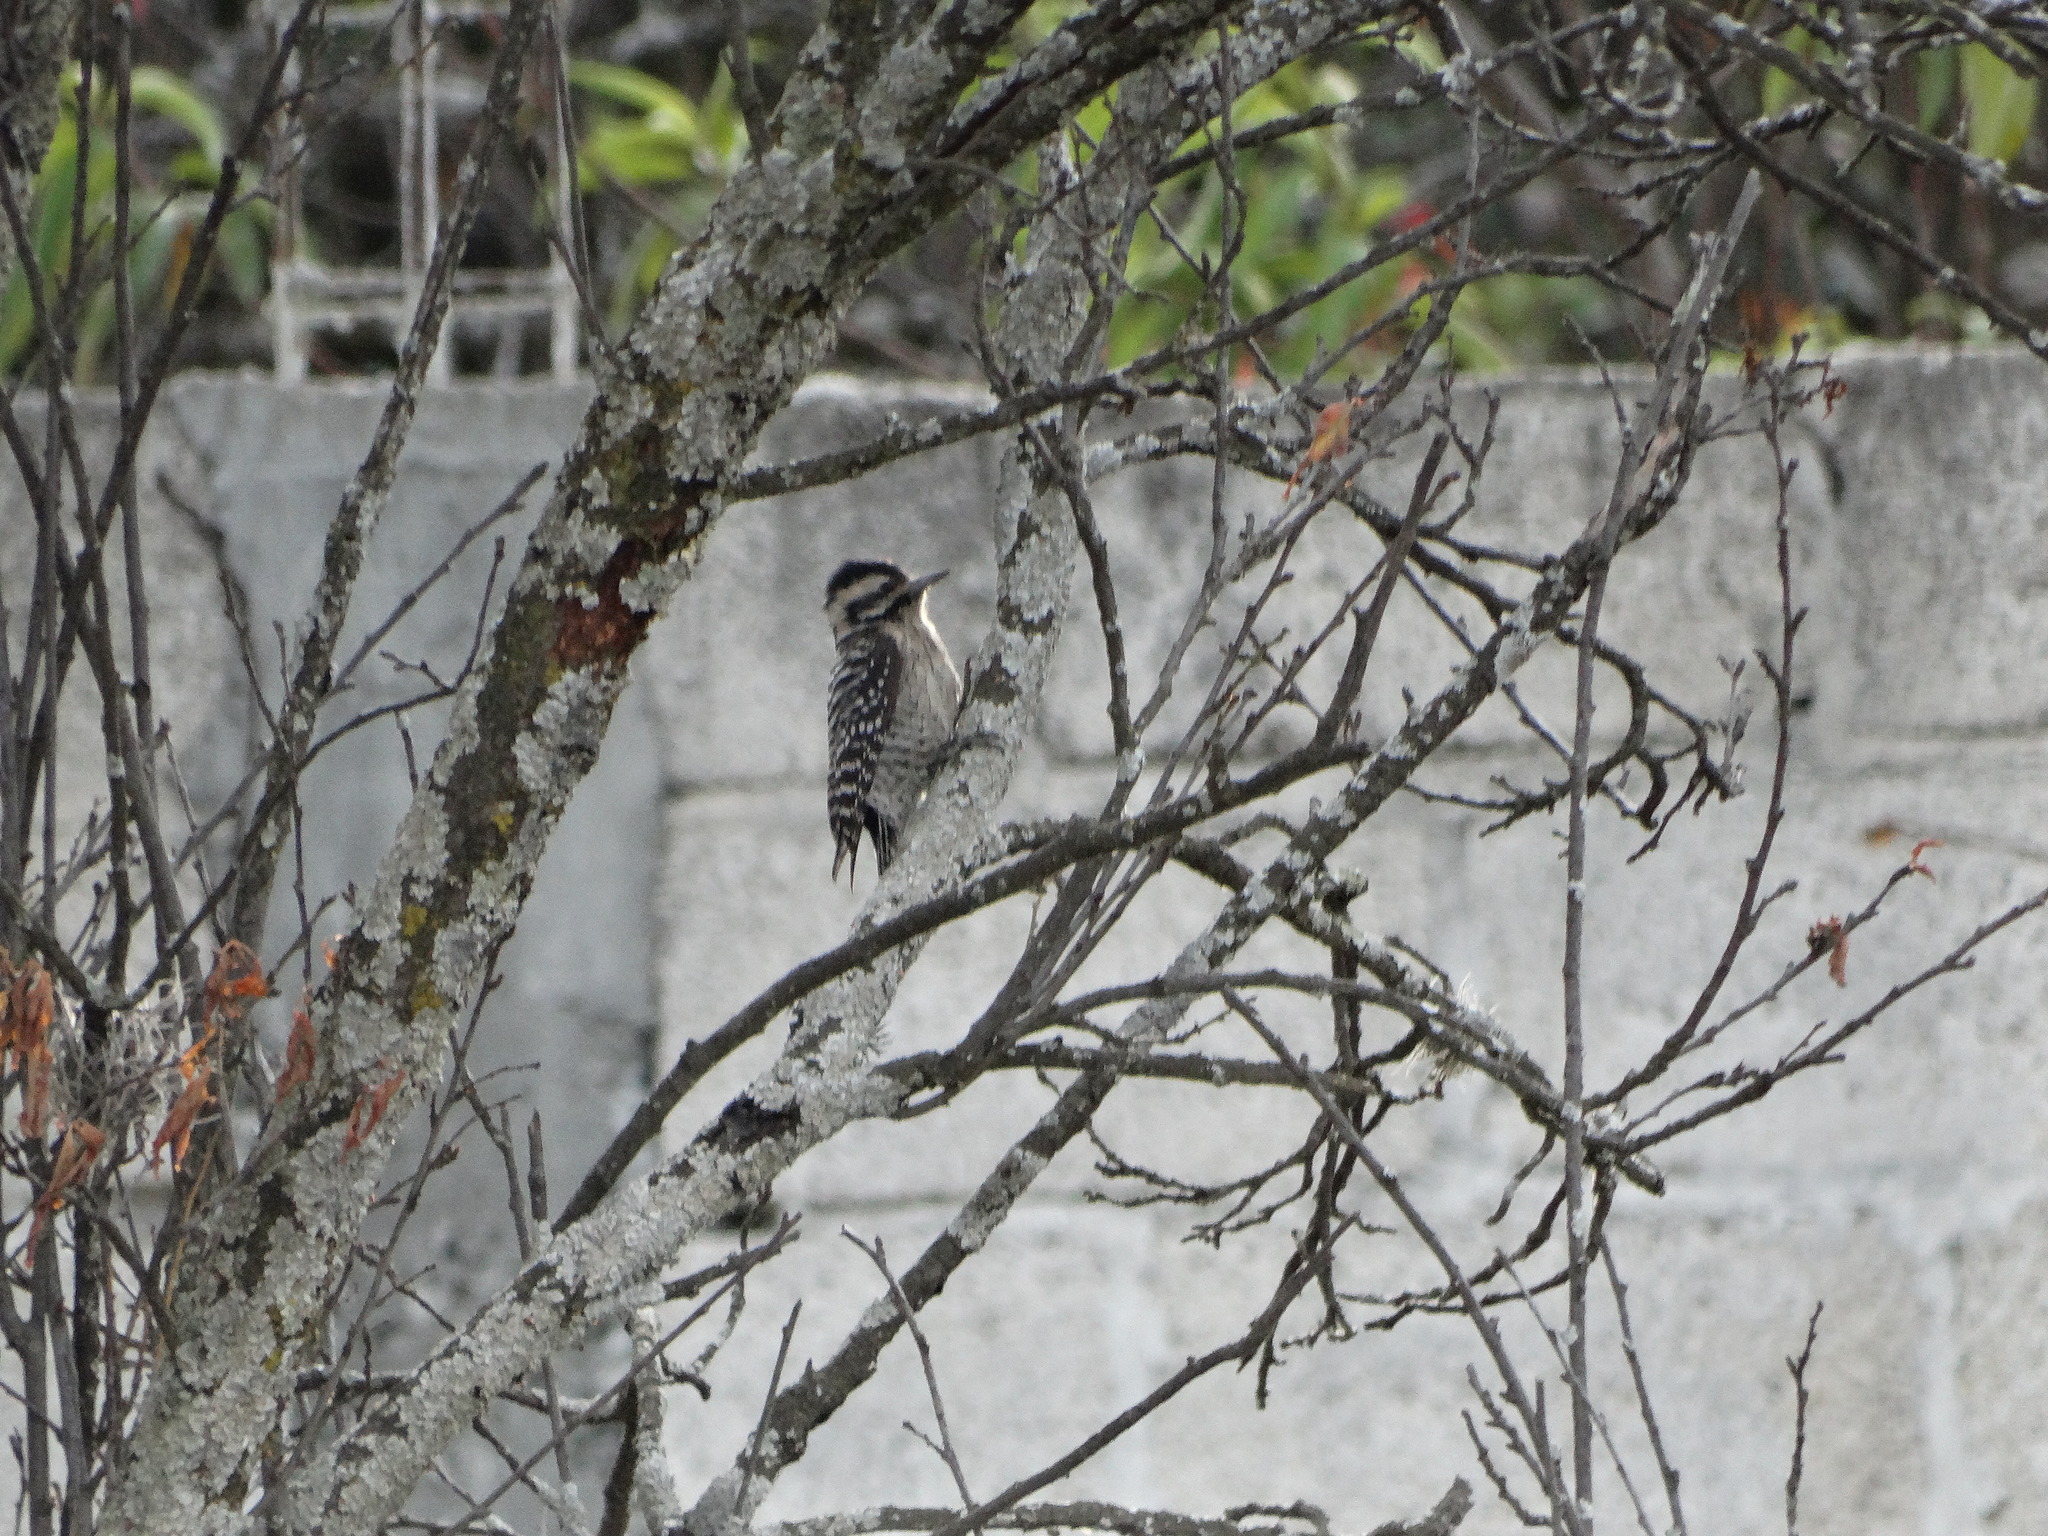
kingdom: Animalia
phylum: Chordata
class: Aves
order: Piciformes
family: Picidae
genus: Dryobates
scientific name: Dryobates scalaris
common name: Ladder-backed woodpecker
